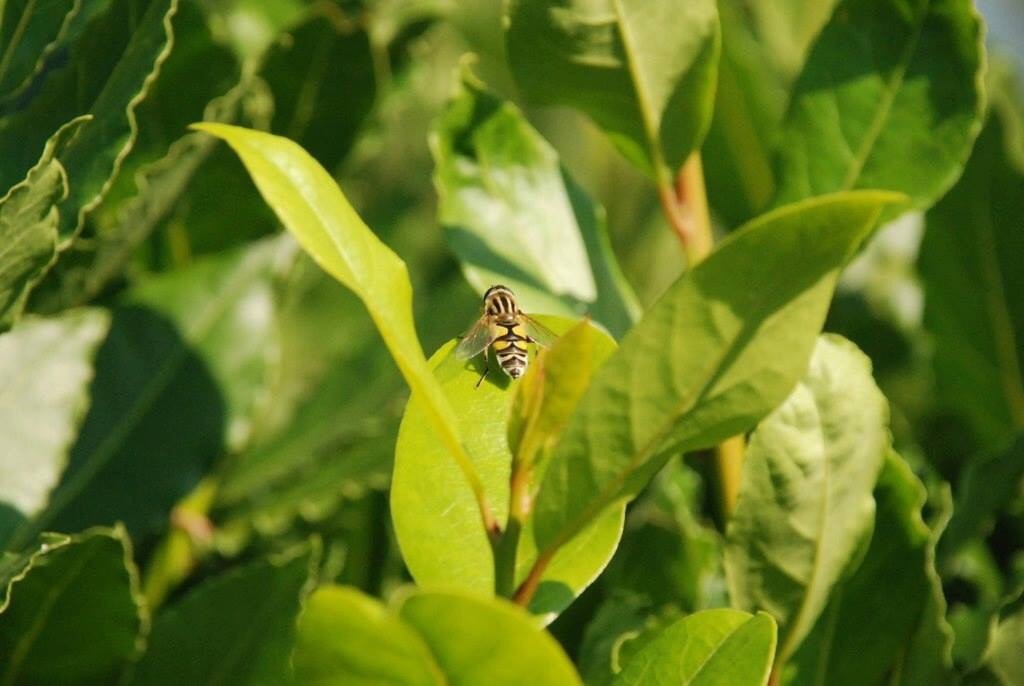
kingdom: Animalia
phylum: Arthropoda
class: Insecta
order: Diptera
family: Syrphidae
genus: Helophilus
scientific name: Helophilus trivittatus
